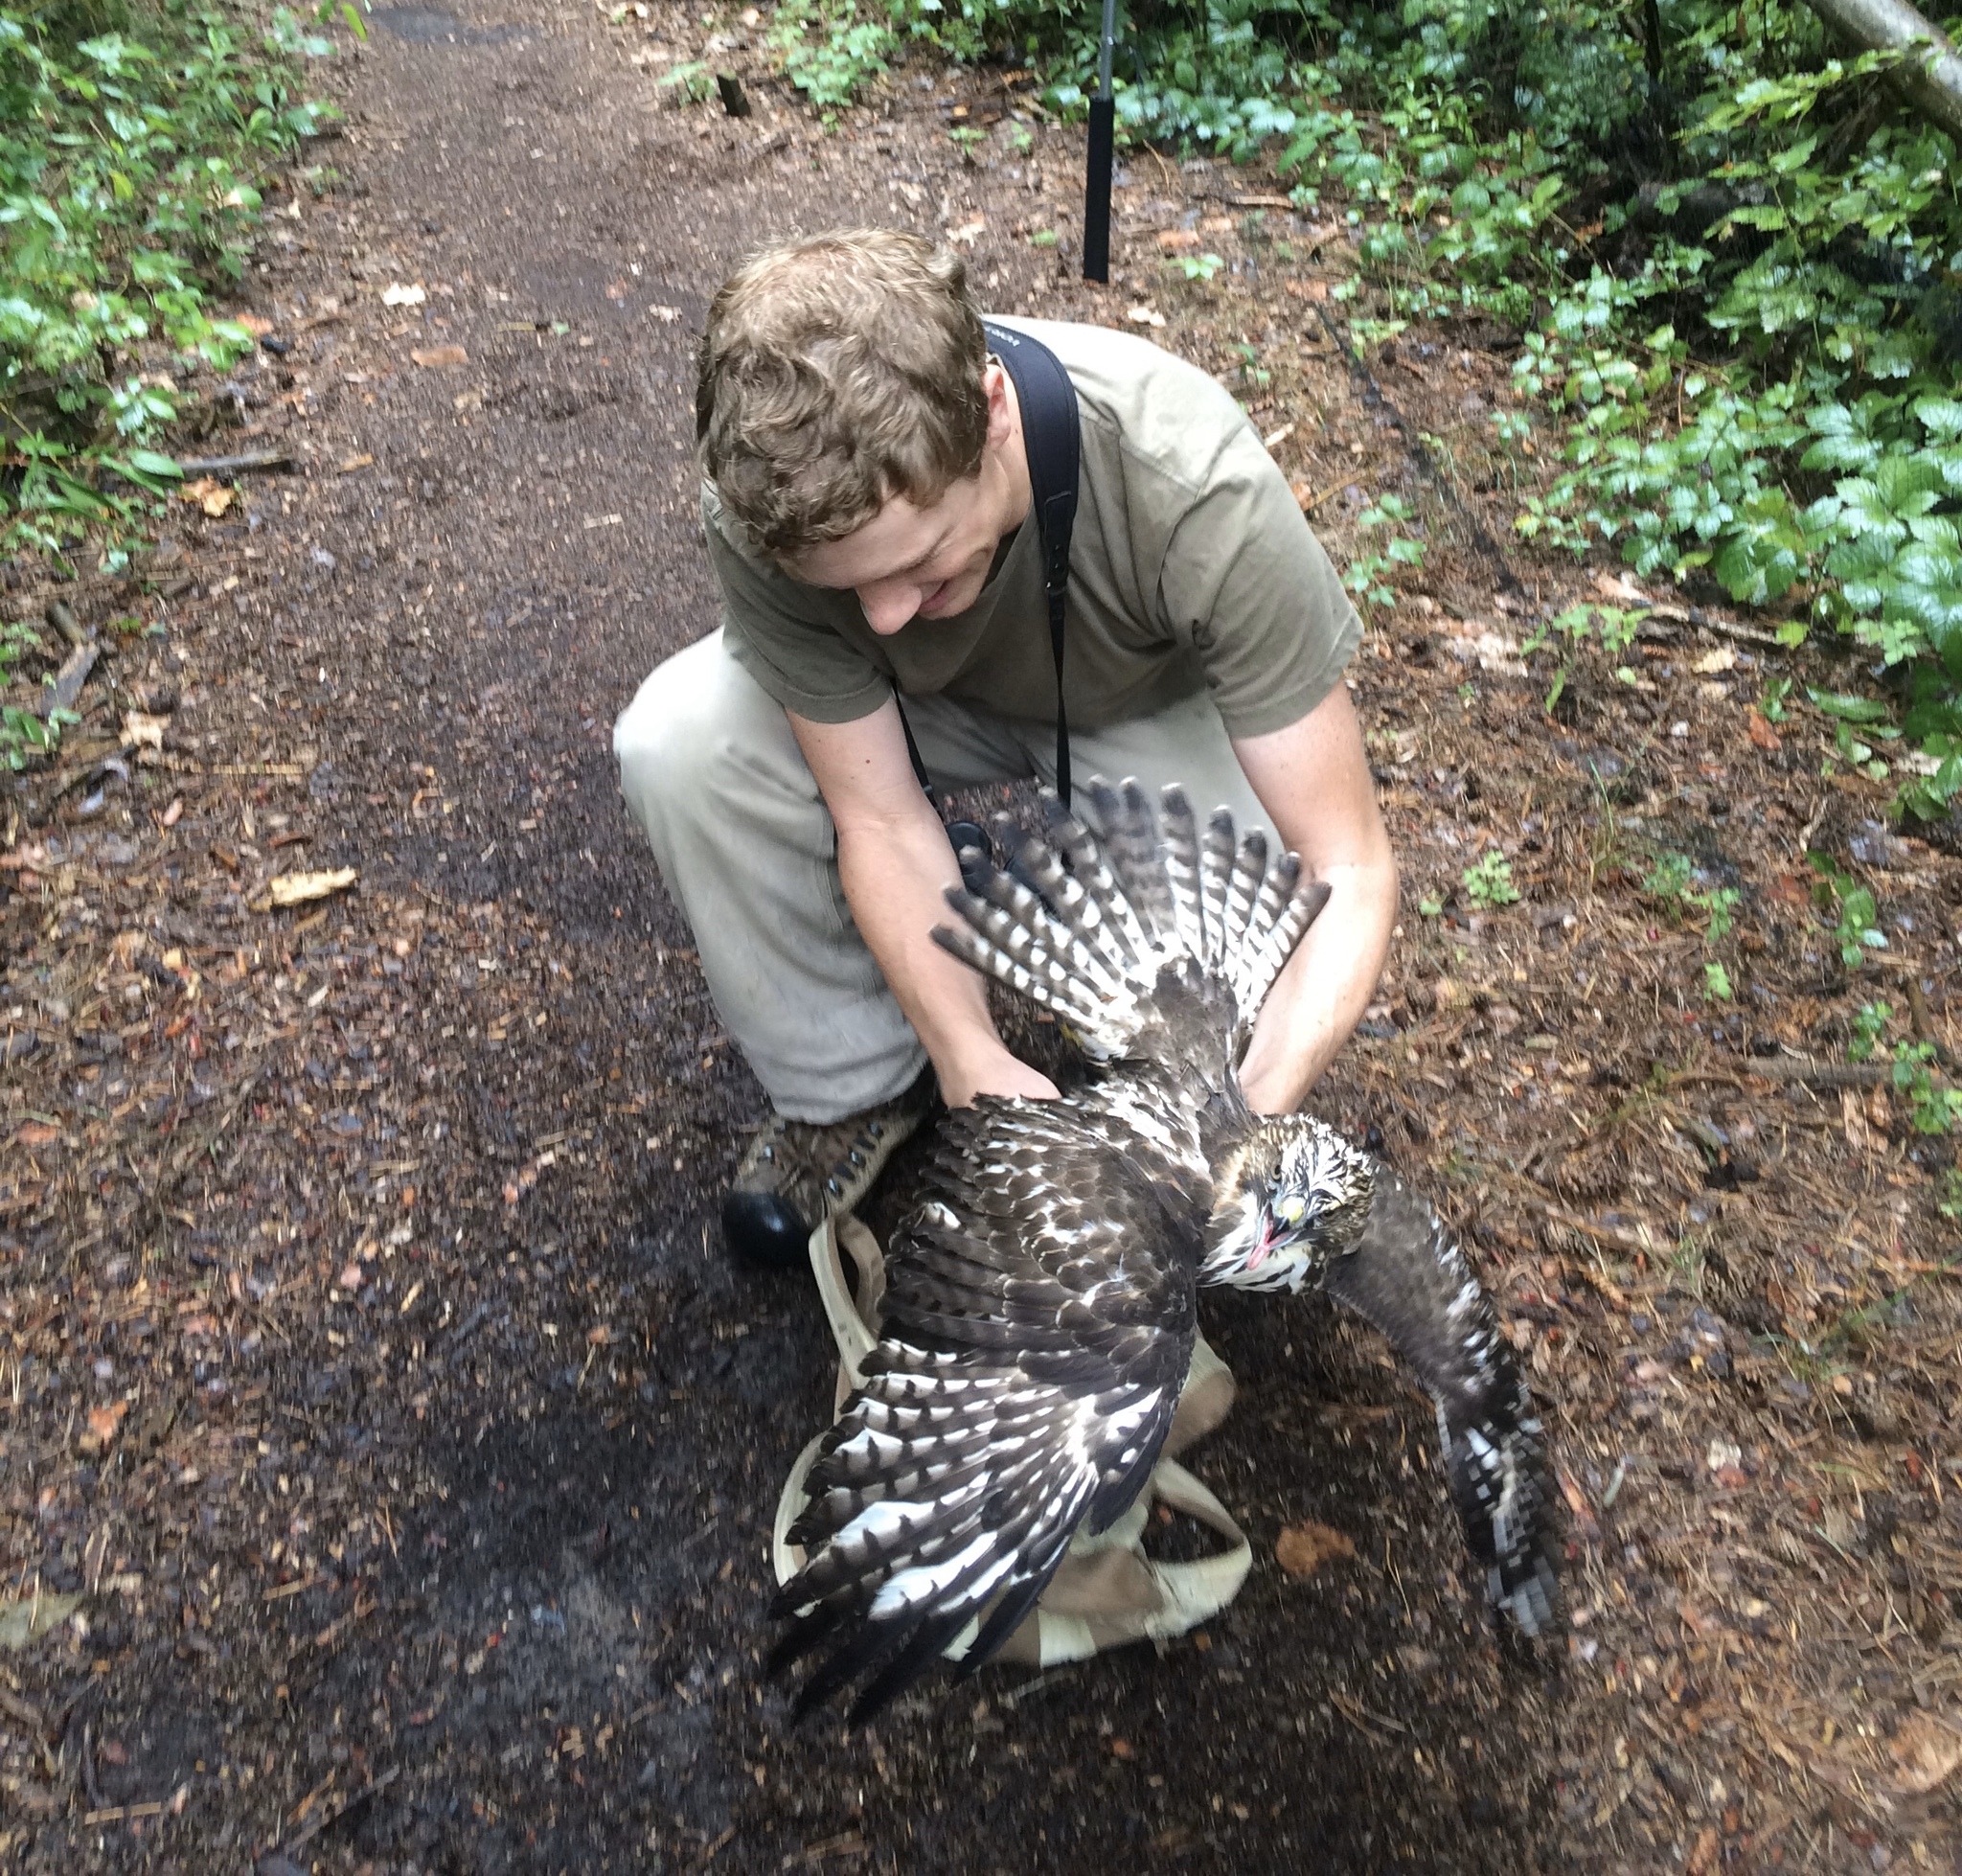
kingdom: Animalia
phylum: Chordata
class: Aves
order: Accipitriformes
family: Accipitridae
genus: Buteo
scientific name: Buteo platypterus
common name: Broad-winged hawk
